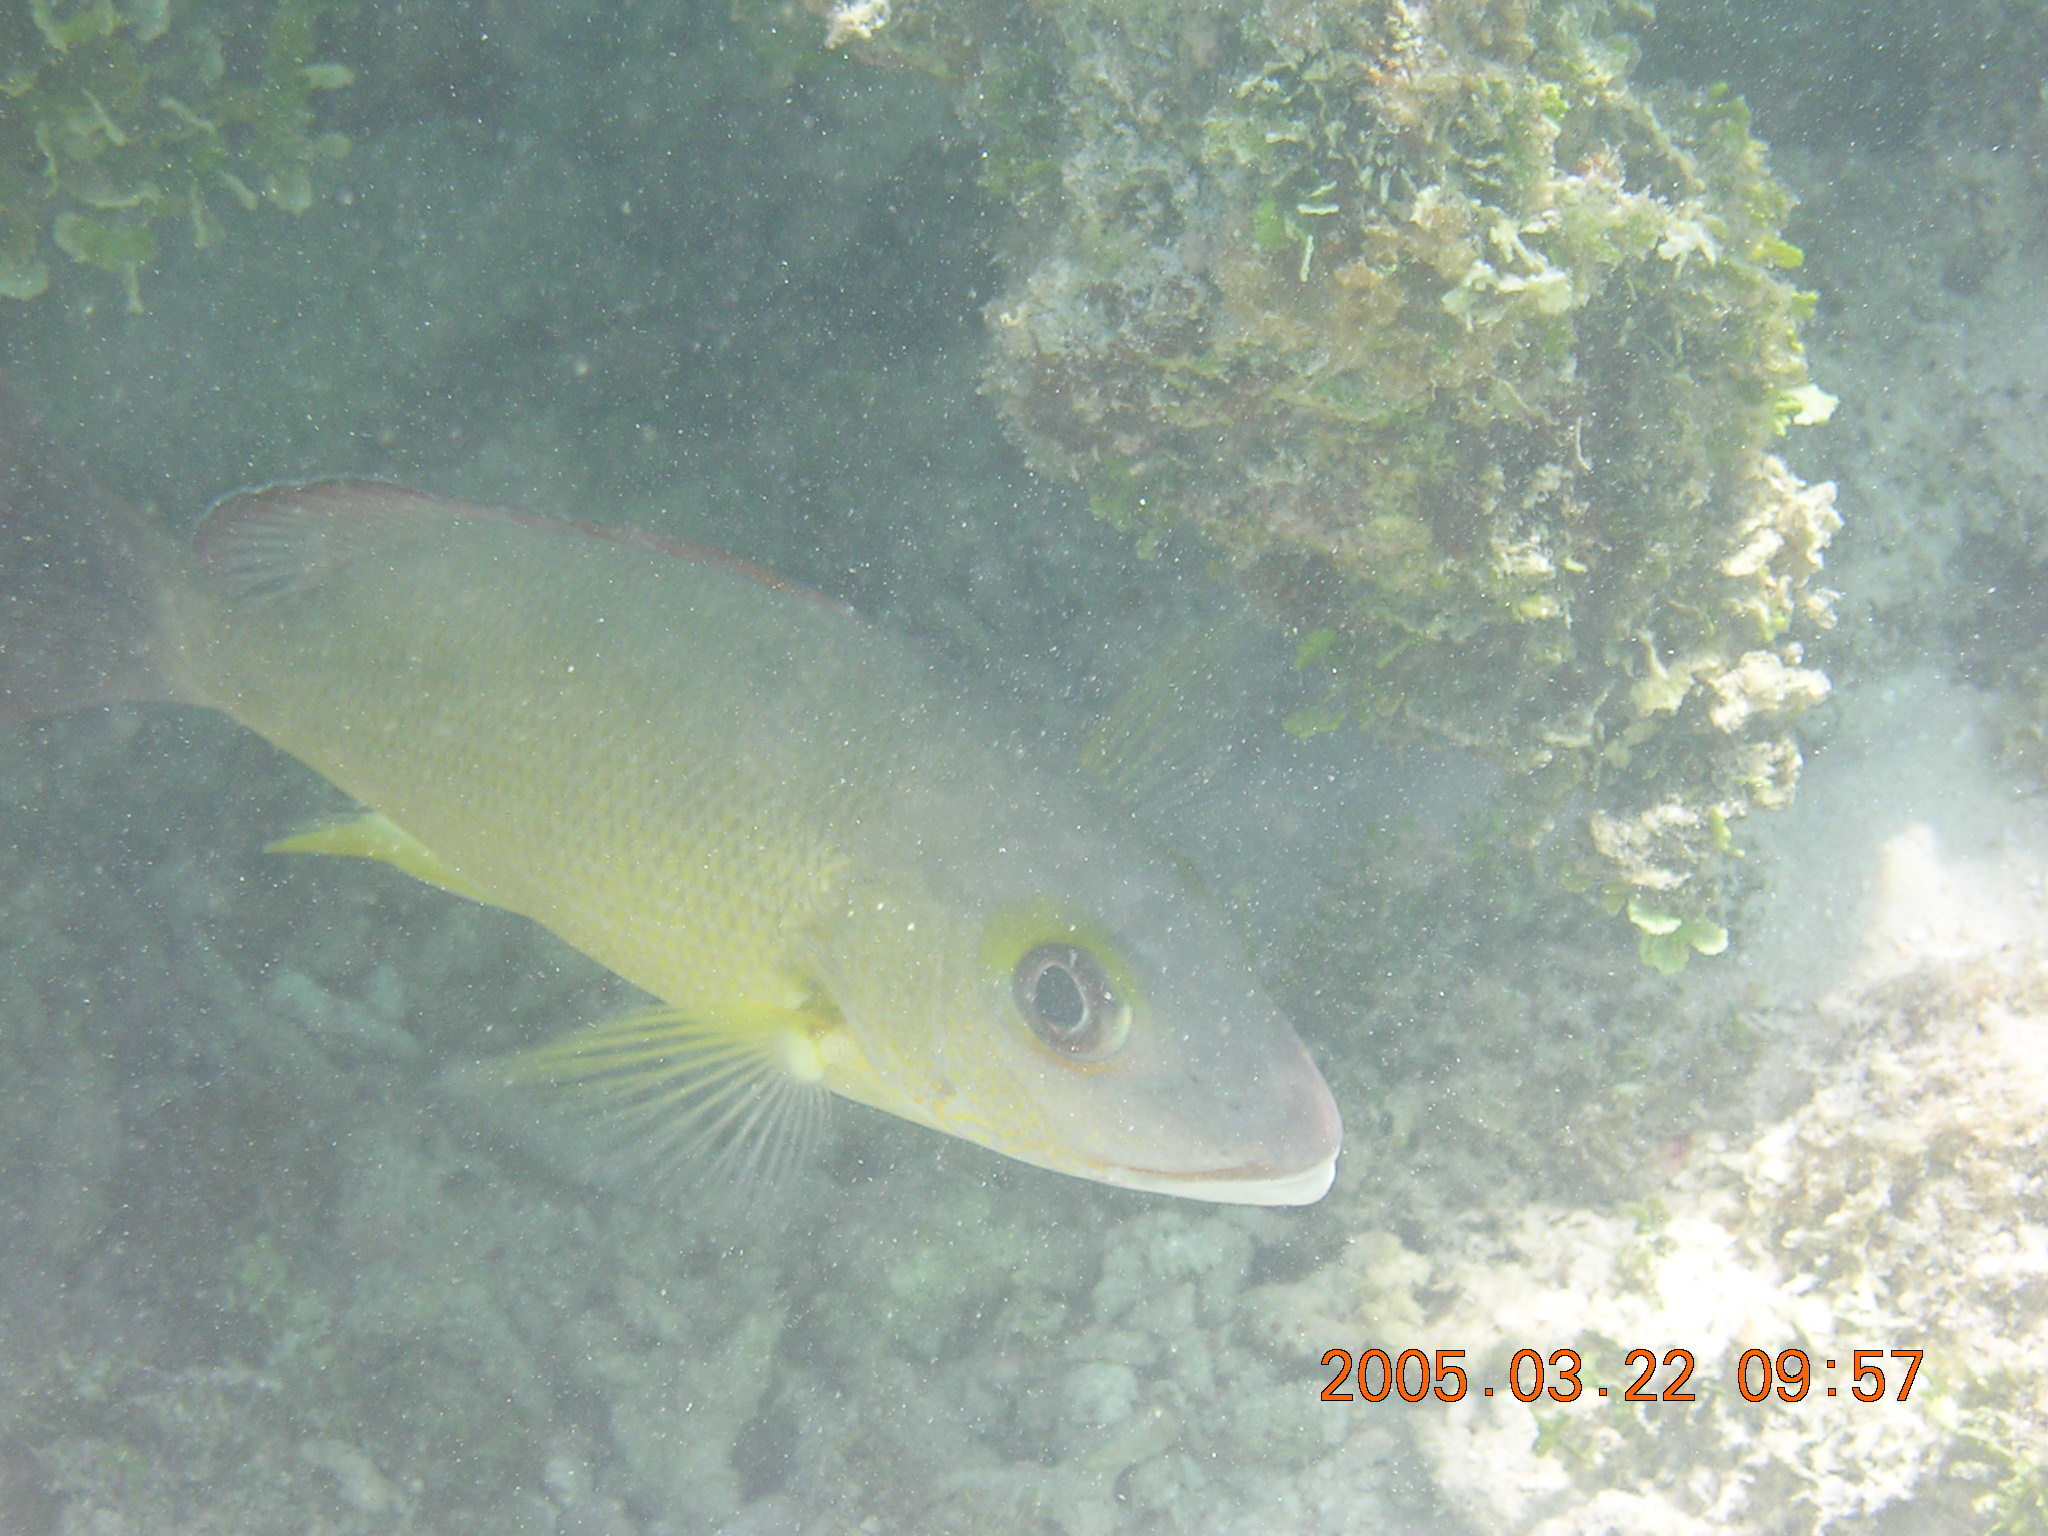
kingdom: Animalia
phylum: Chordata
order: Perciformes
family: Lutjanidae
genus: Lutjanus
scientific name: Lutjanus fulvus
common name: Blacktail snapper
